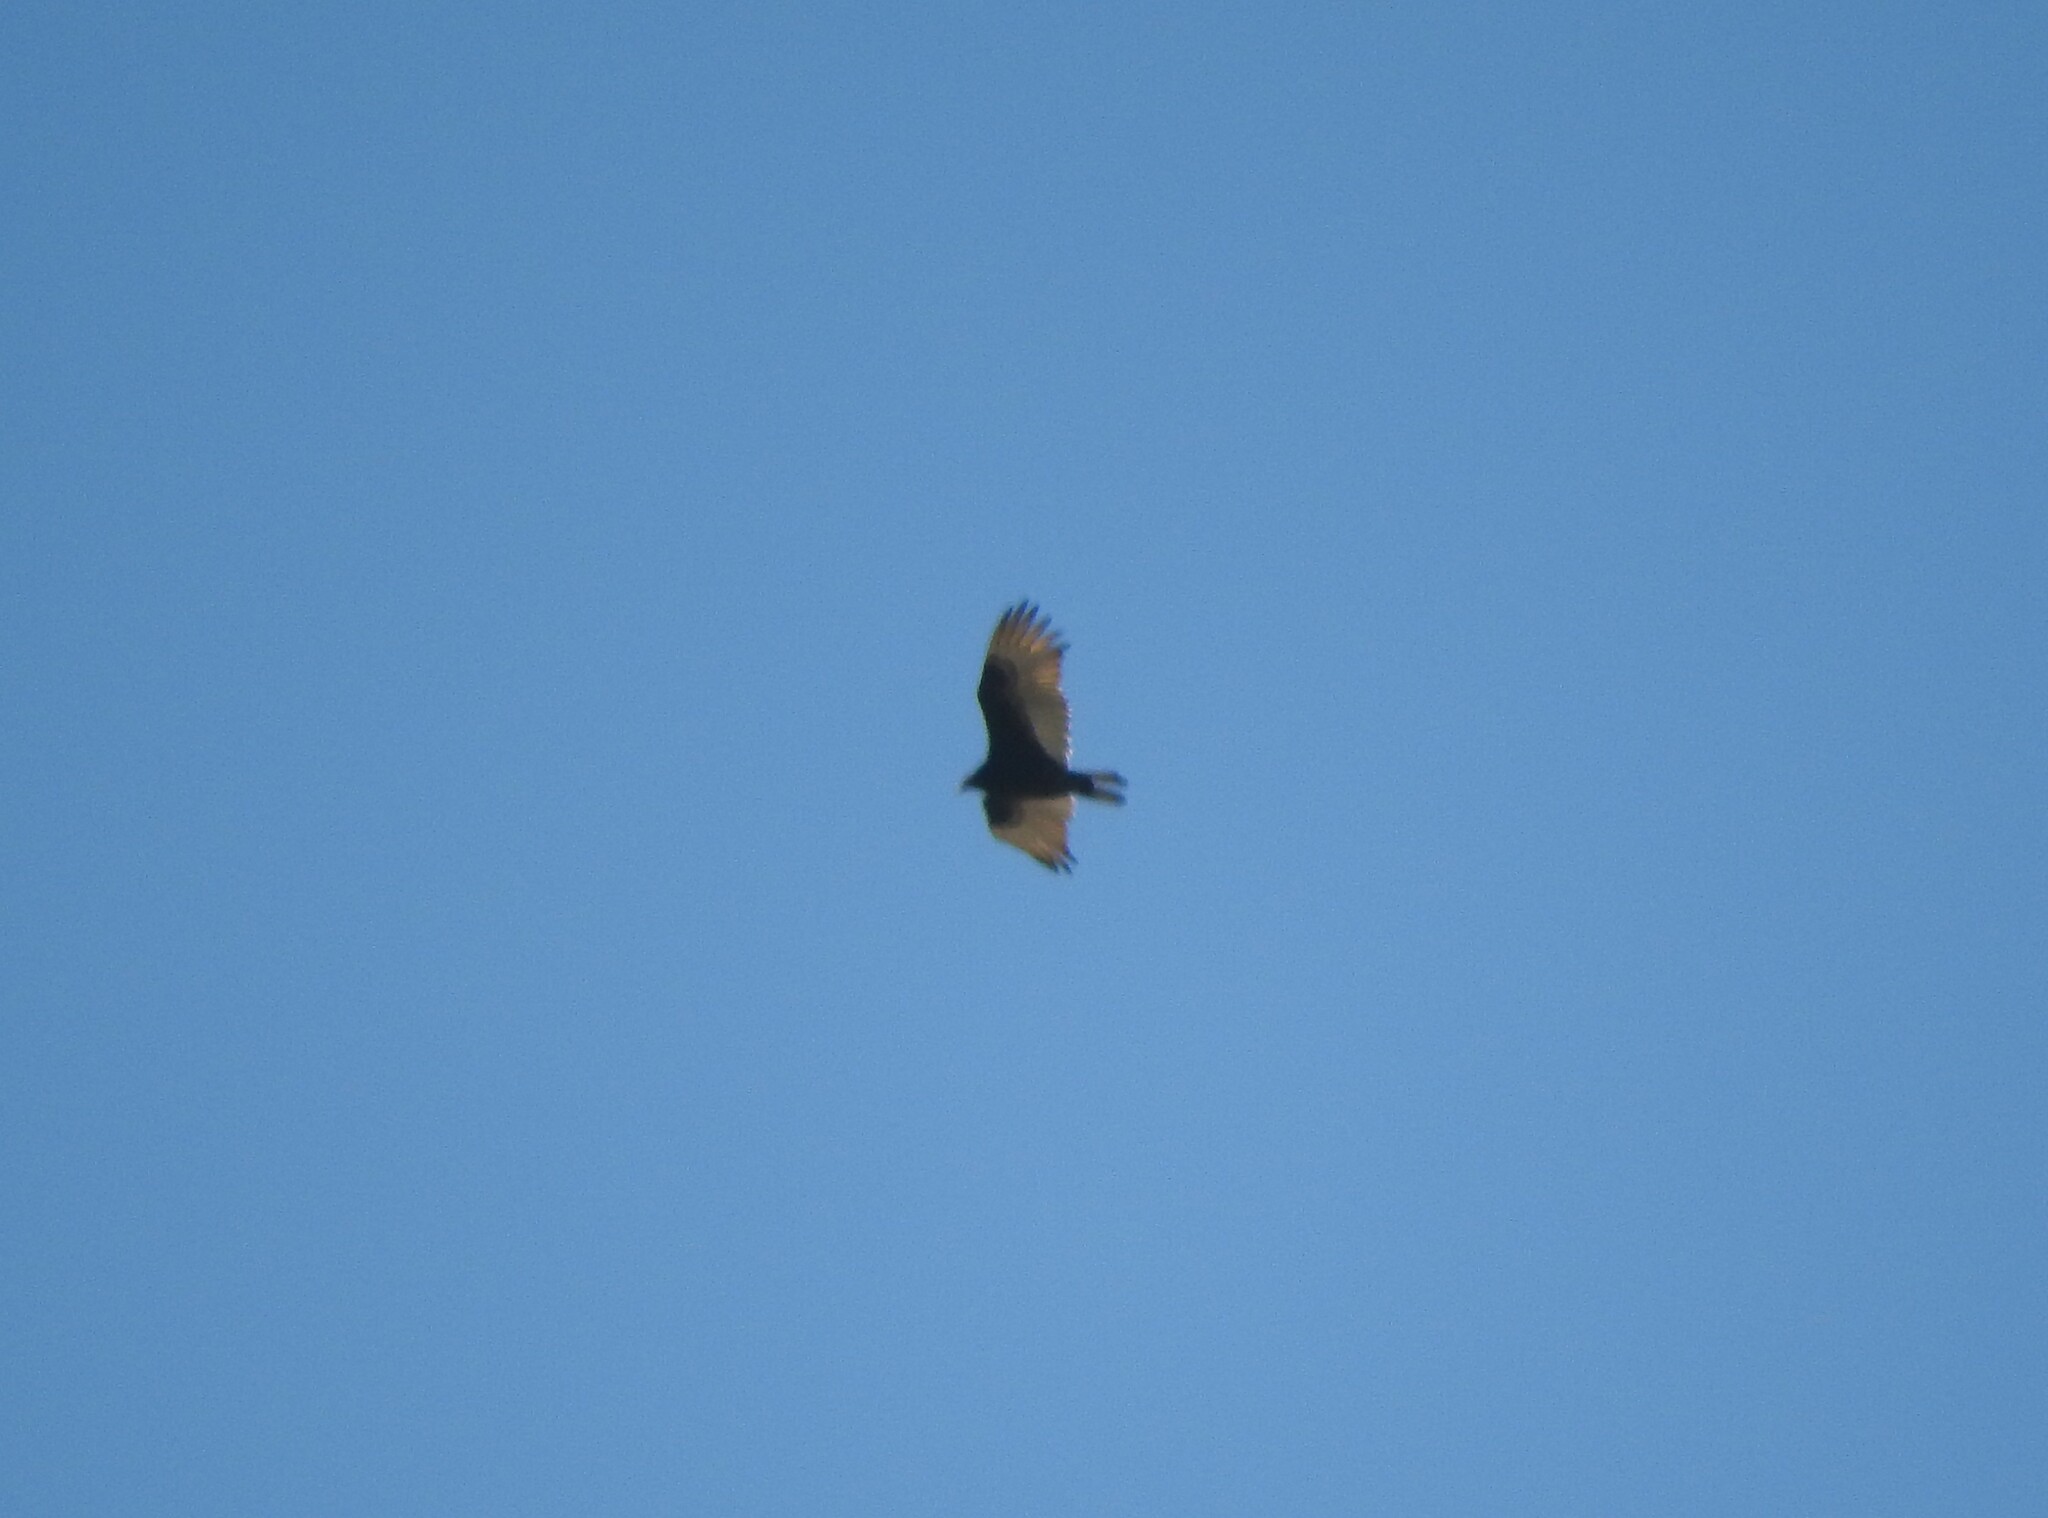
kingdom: Animalia
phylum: Chordata
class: Aves
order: Accipitriformes
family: Cathartidae
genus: Cathartes
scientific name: Cathartes aura
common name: Turkey vulture
